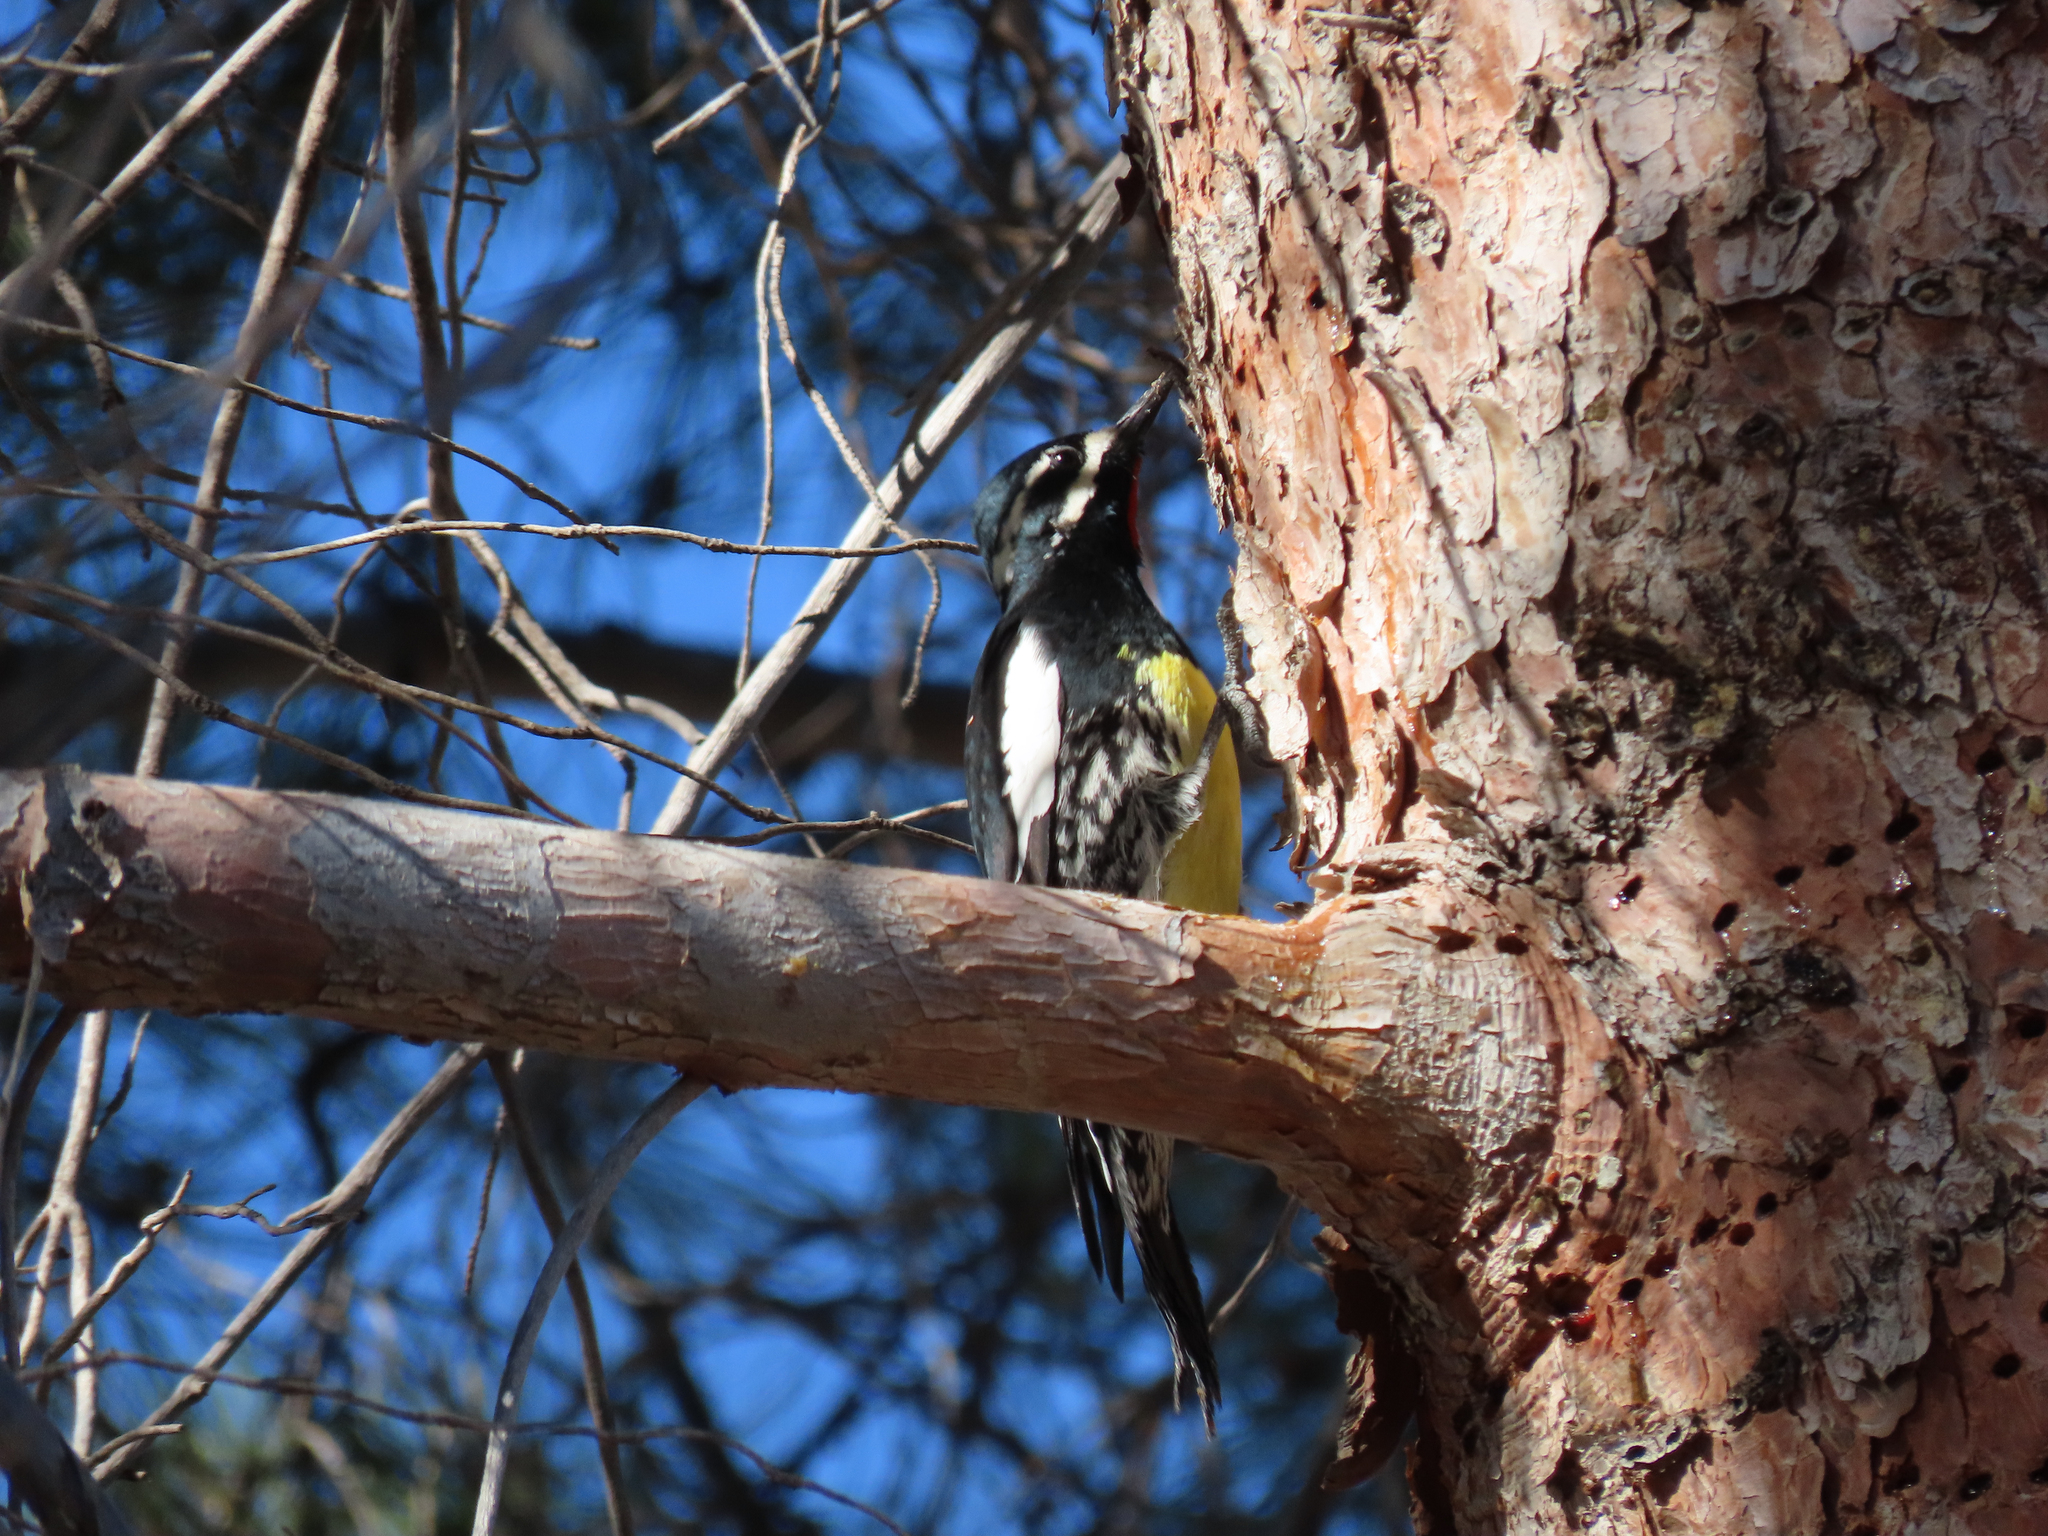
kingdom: Animalia
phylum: Chordata
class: Aves
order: Piciformes
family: Picidae
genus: Sphyrapicus
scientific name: Sphyrapicus thyroideus
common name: Williamson's sapsucker
